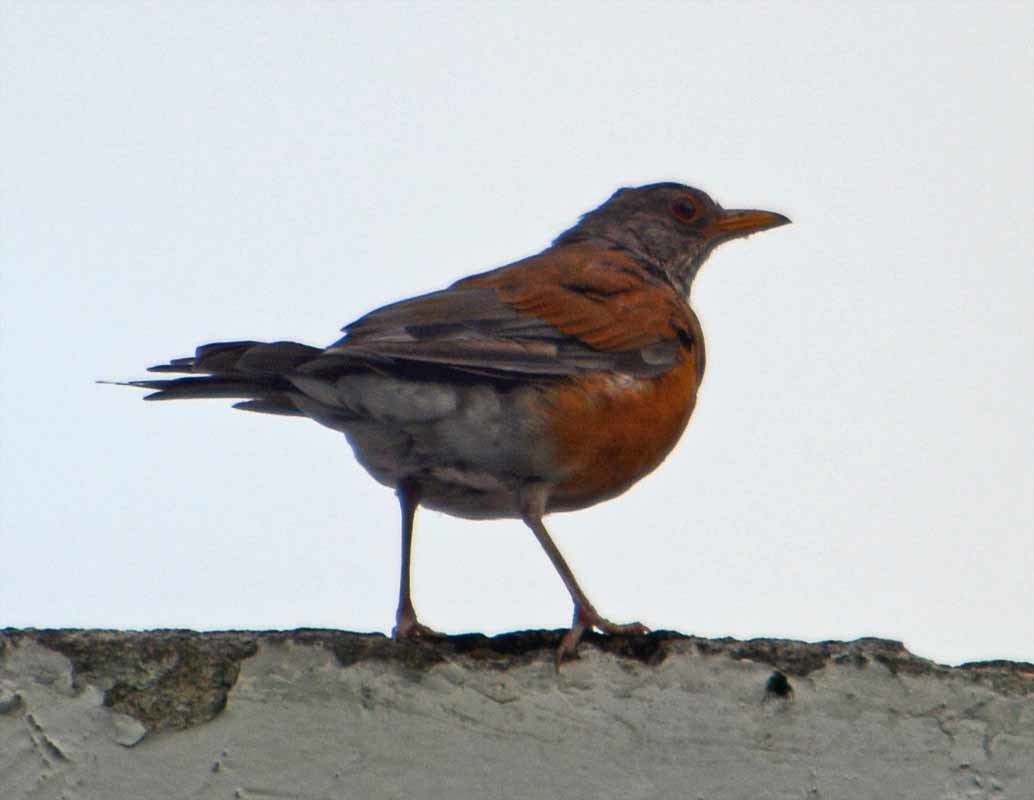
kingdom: Animalia
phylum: Chordata
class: Aves
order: Passeriformes
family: Turdidae
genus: Turdus
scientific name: Turdus rufopalliatus
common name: Rufous-backed robin
